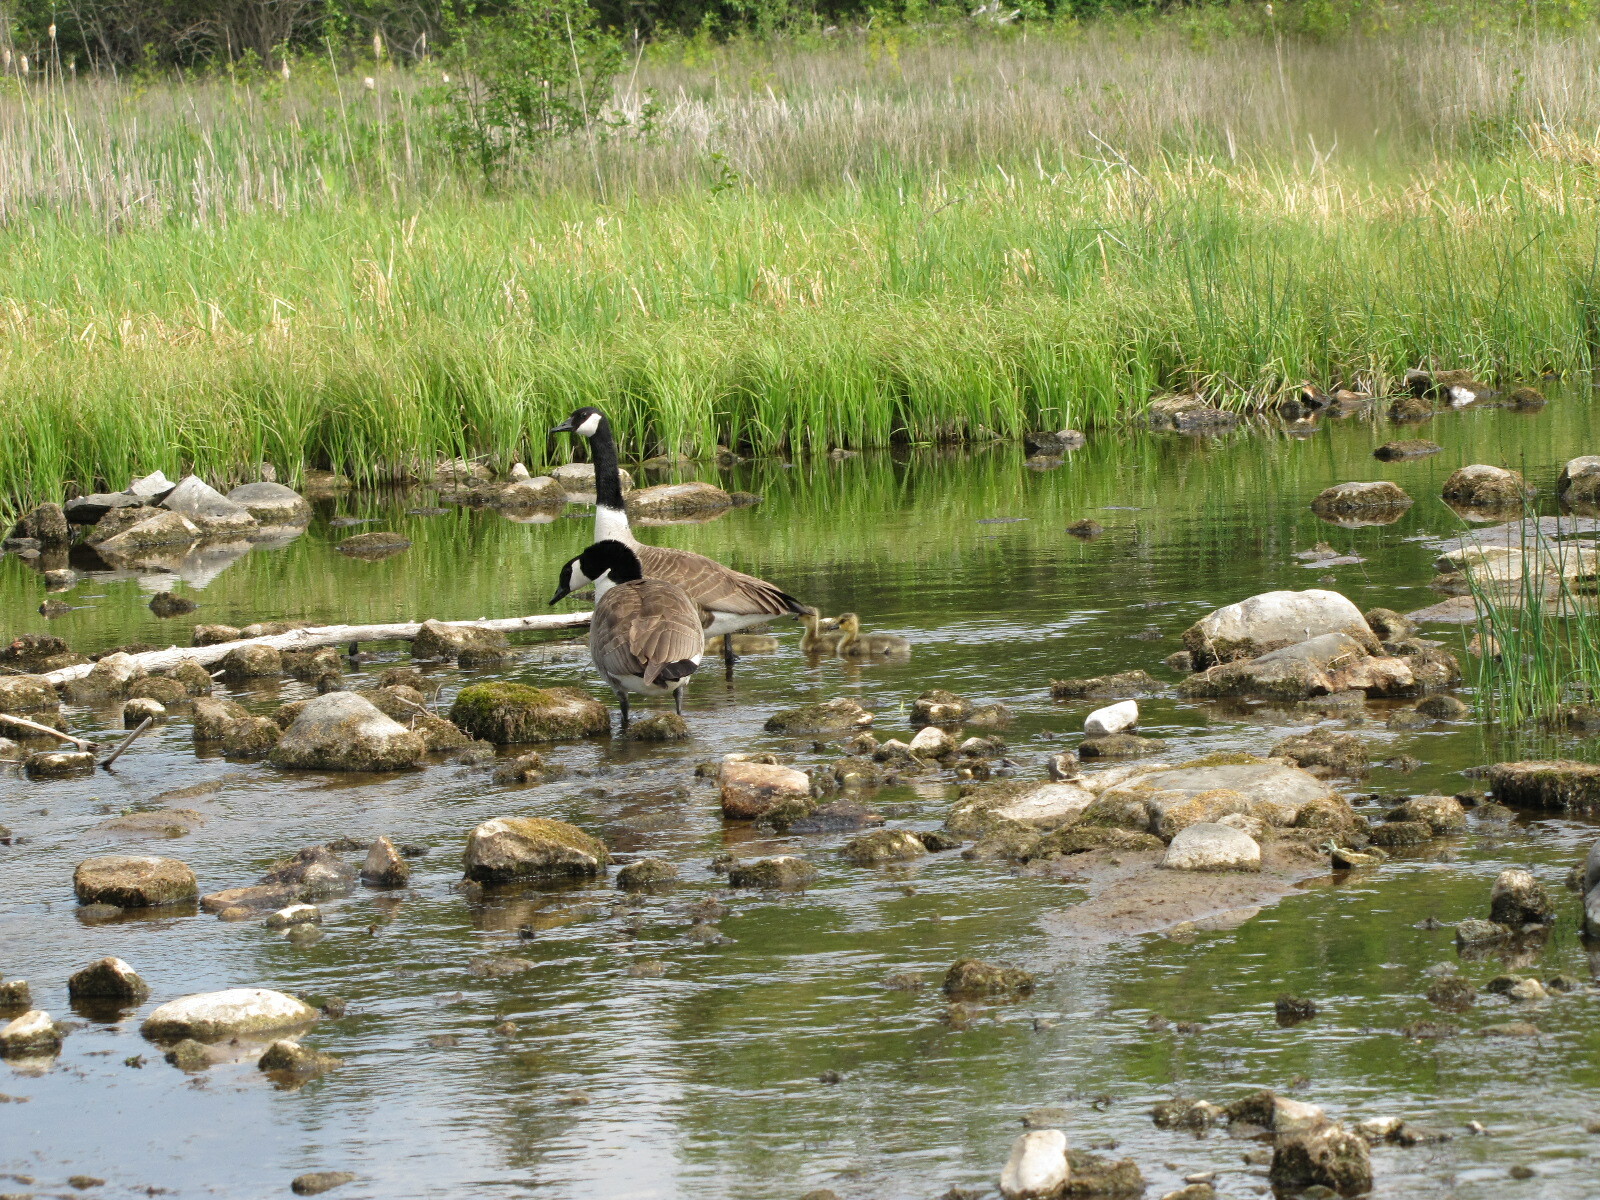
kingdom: Animalia
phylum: Chordata
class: Aves
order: Anseriformes
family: Anatidae
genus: Branta
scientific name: Branta canadensis
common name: Canada goose
